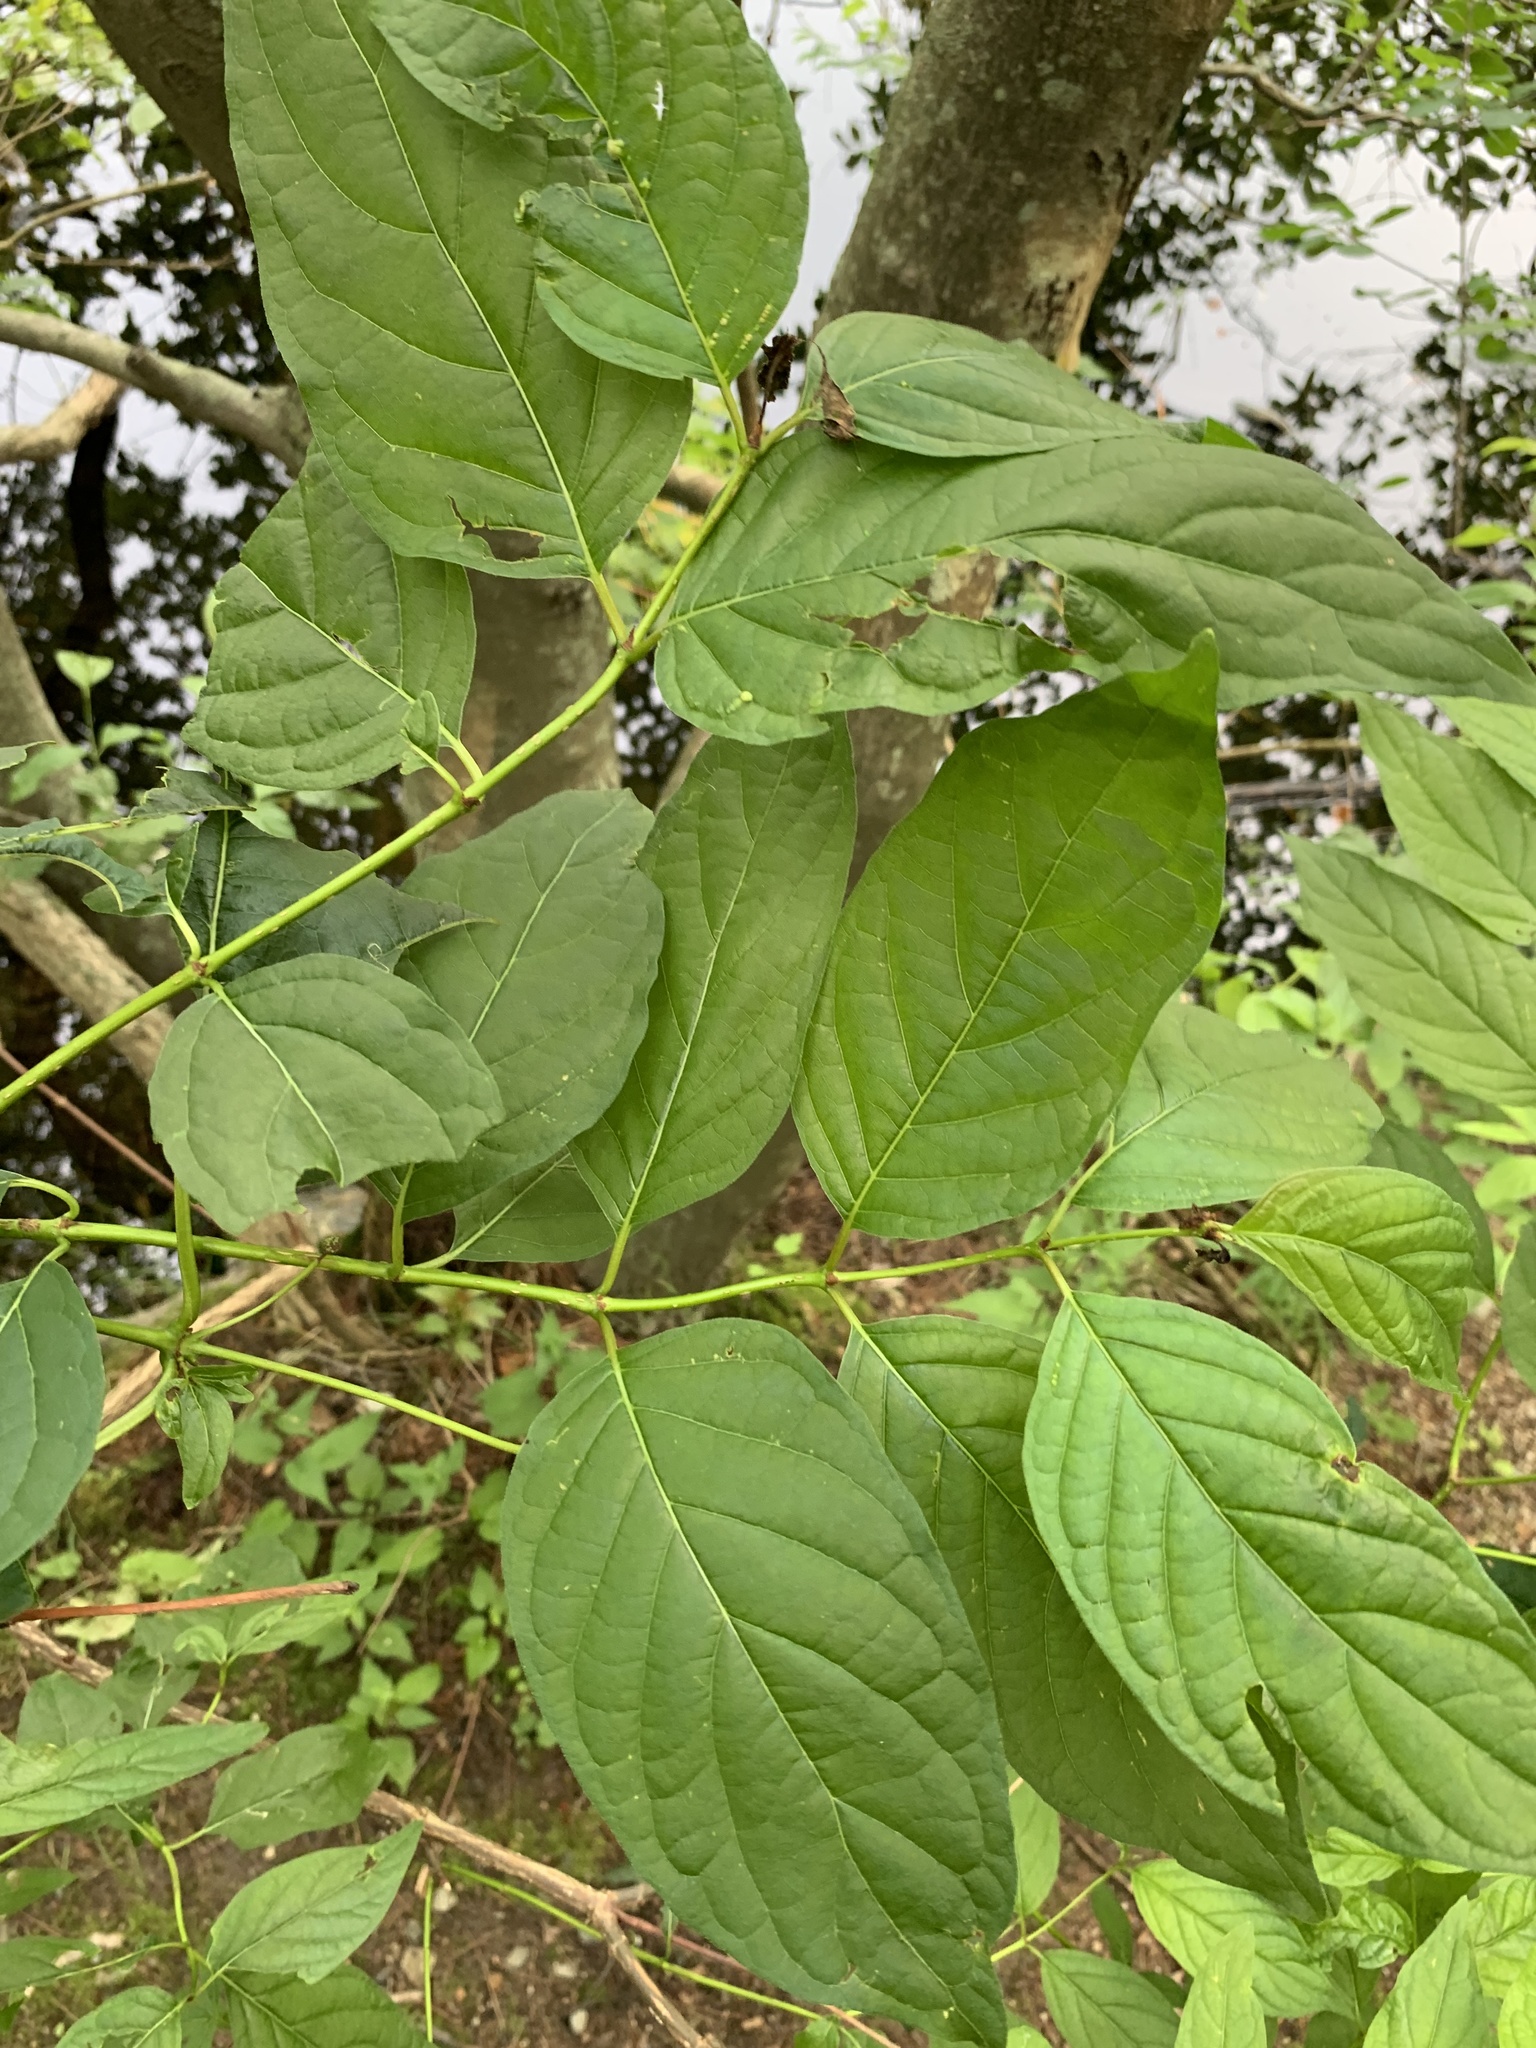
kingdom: Plantae
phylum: Tracheophyta
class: Magnoliopsida
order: Gentianales
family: Rubiaceae
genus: Cephalanthus
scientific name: Cephalanthus occidentalis
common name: Button-willow
